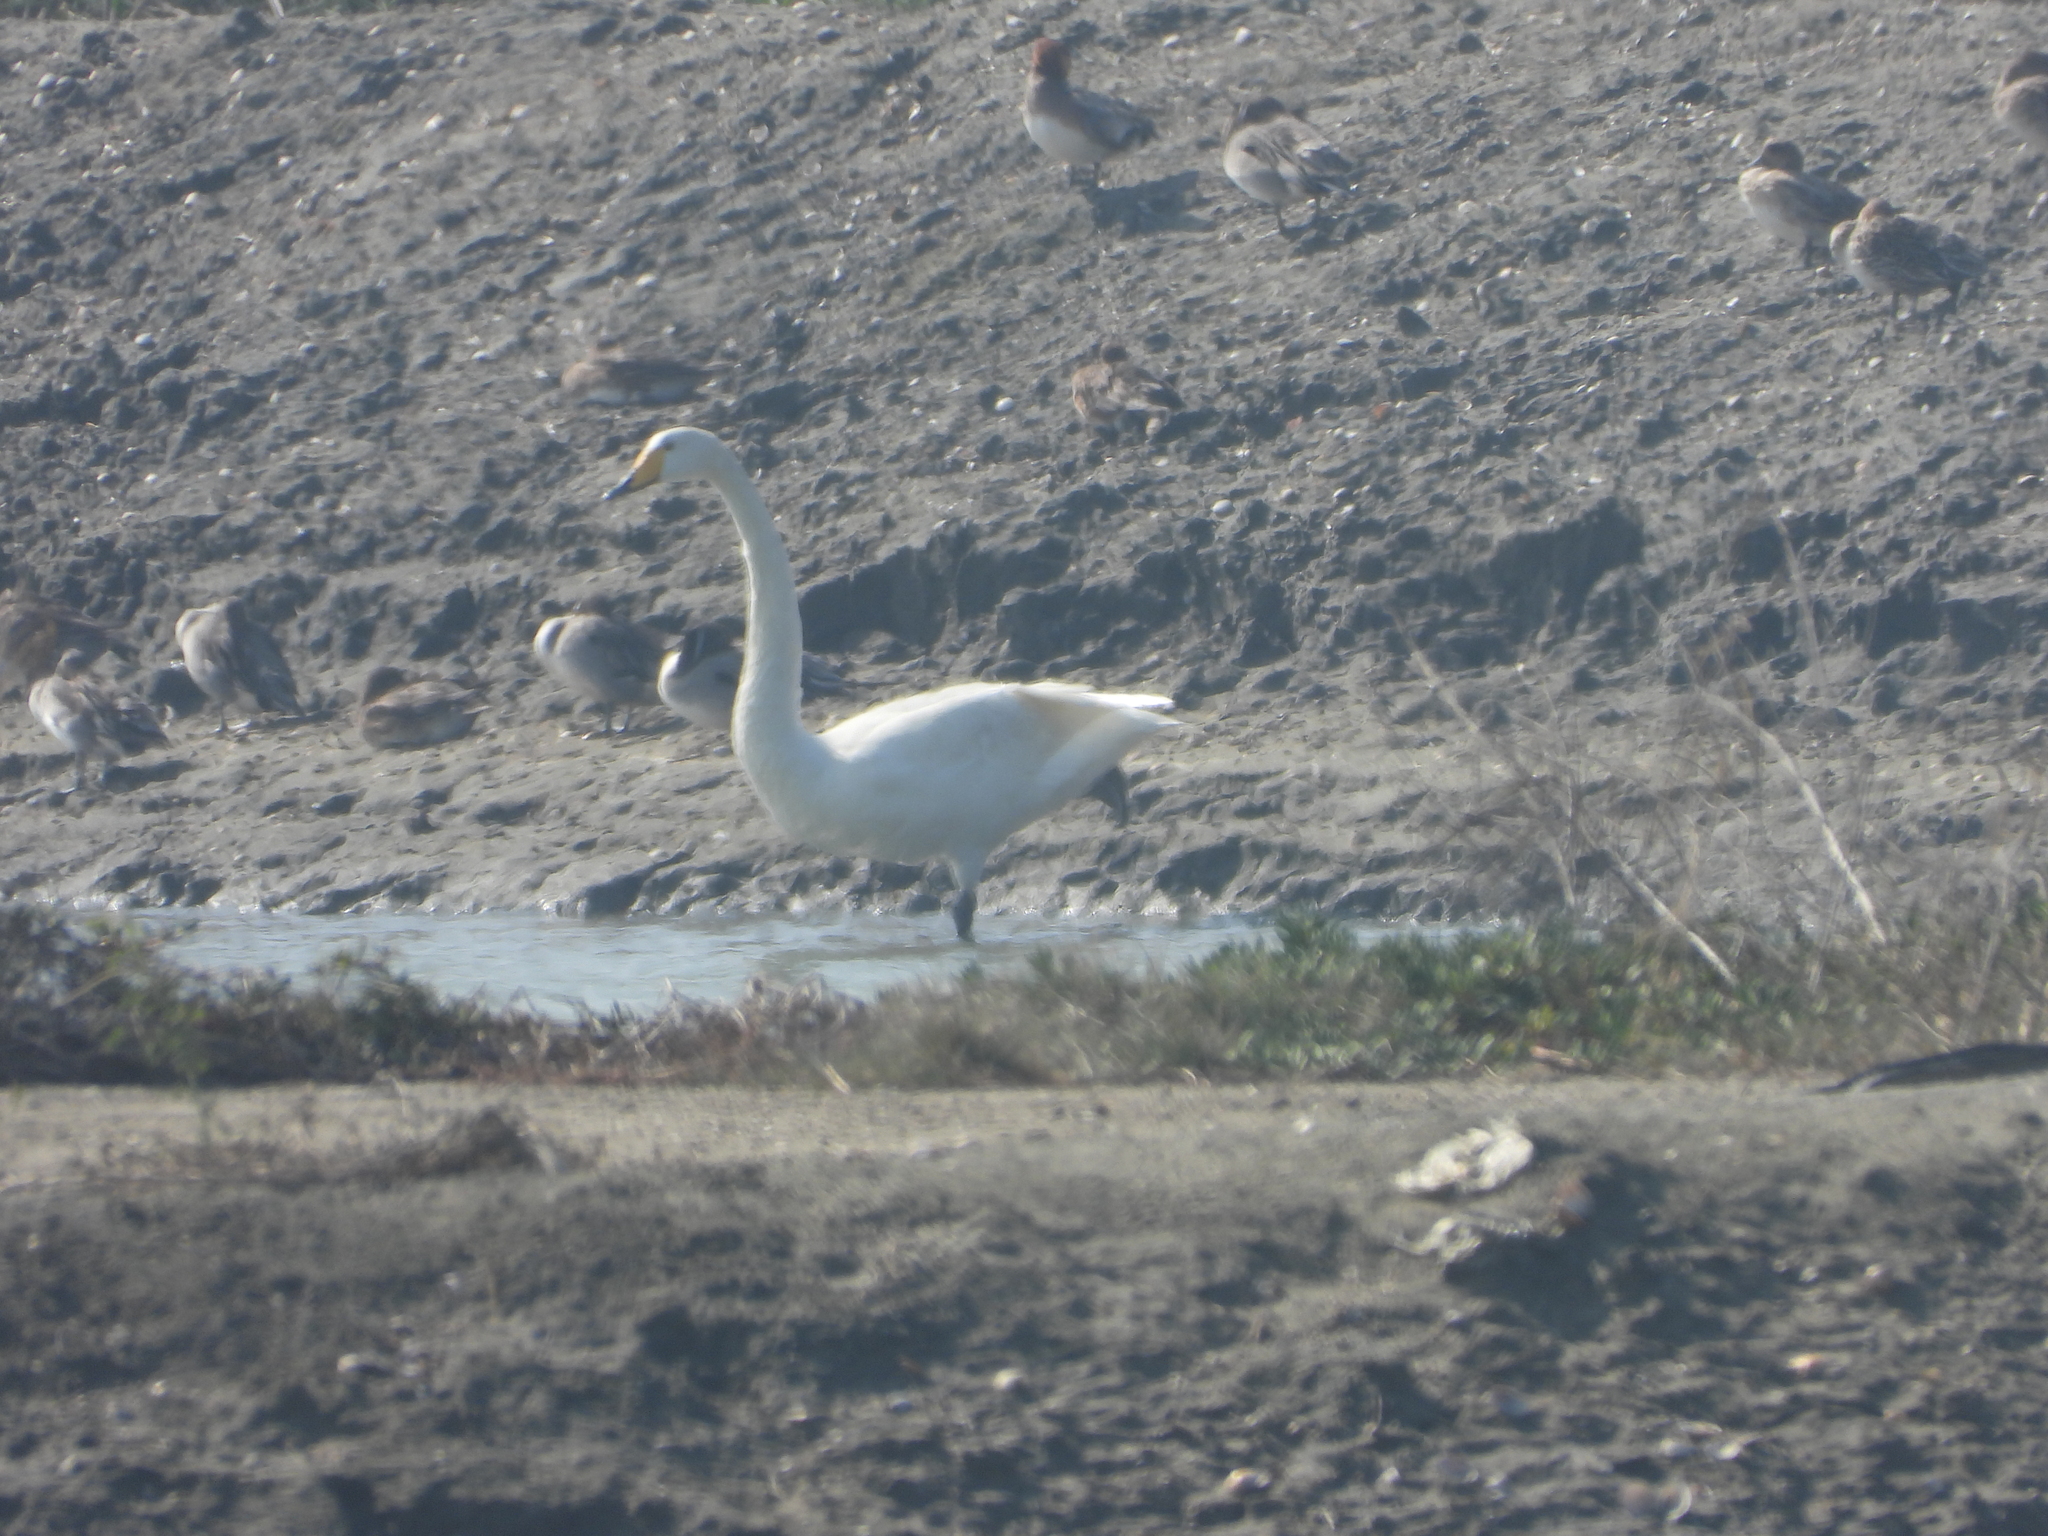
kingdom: Animalia
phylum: Chordata
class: Aves
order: Anseriformes
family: Anatidae
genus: Cygnus
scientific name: Cygnus cygnus
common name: Whooper swan
